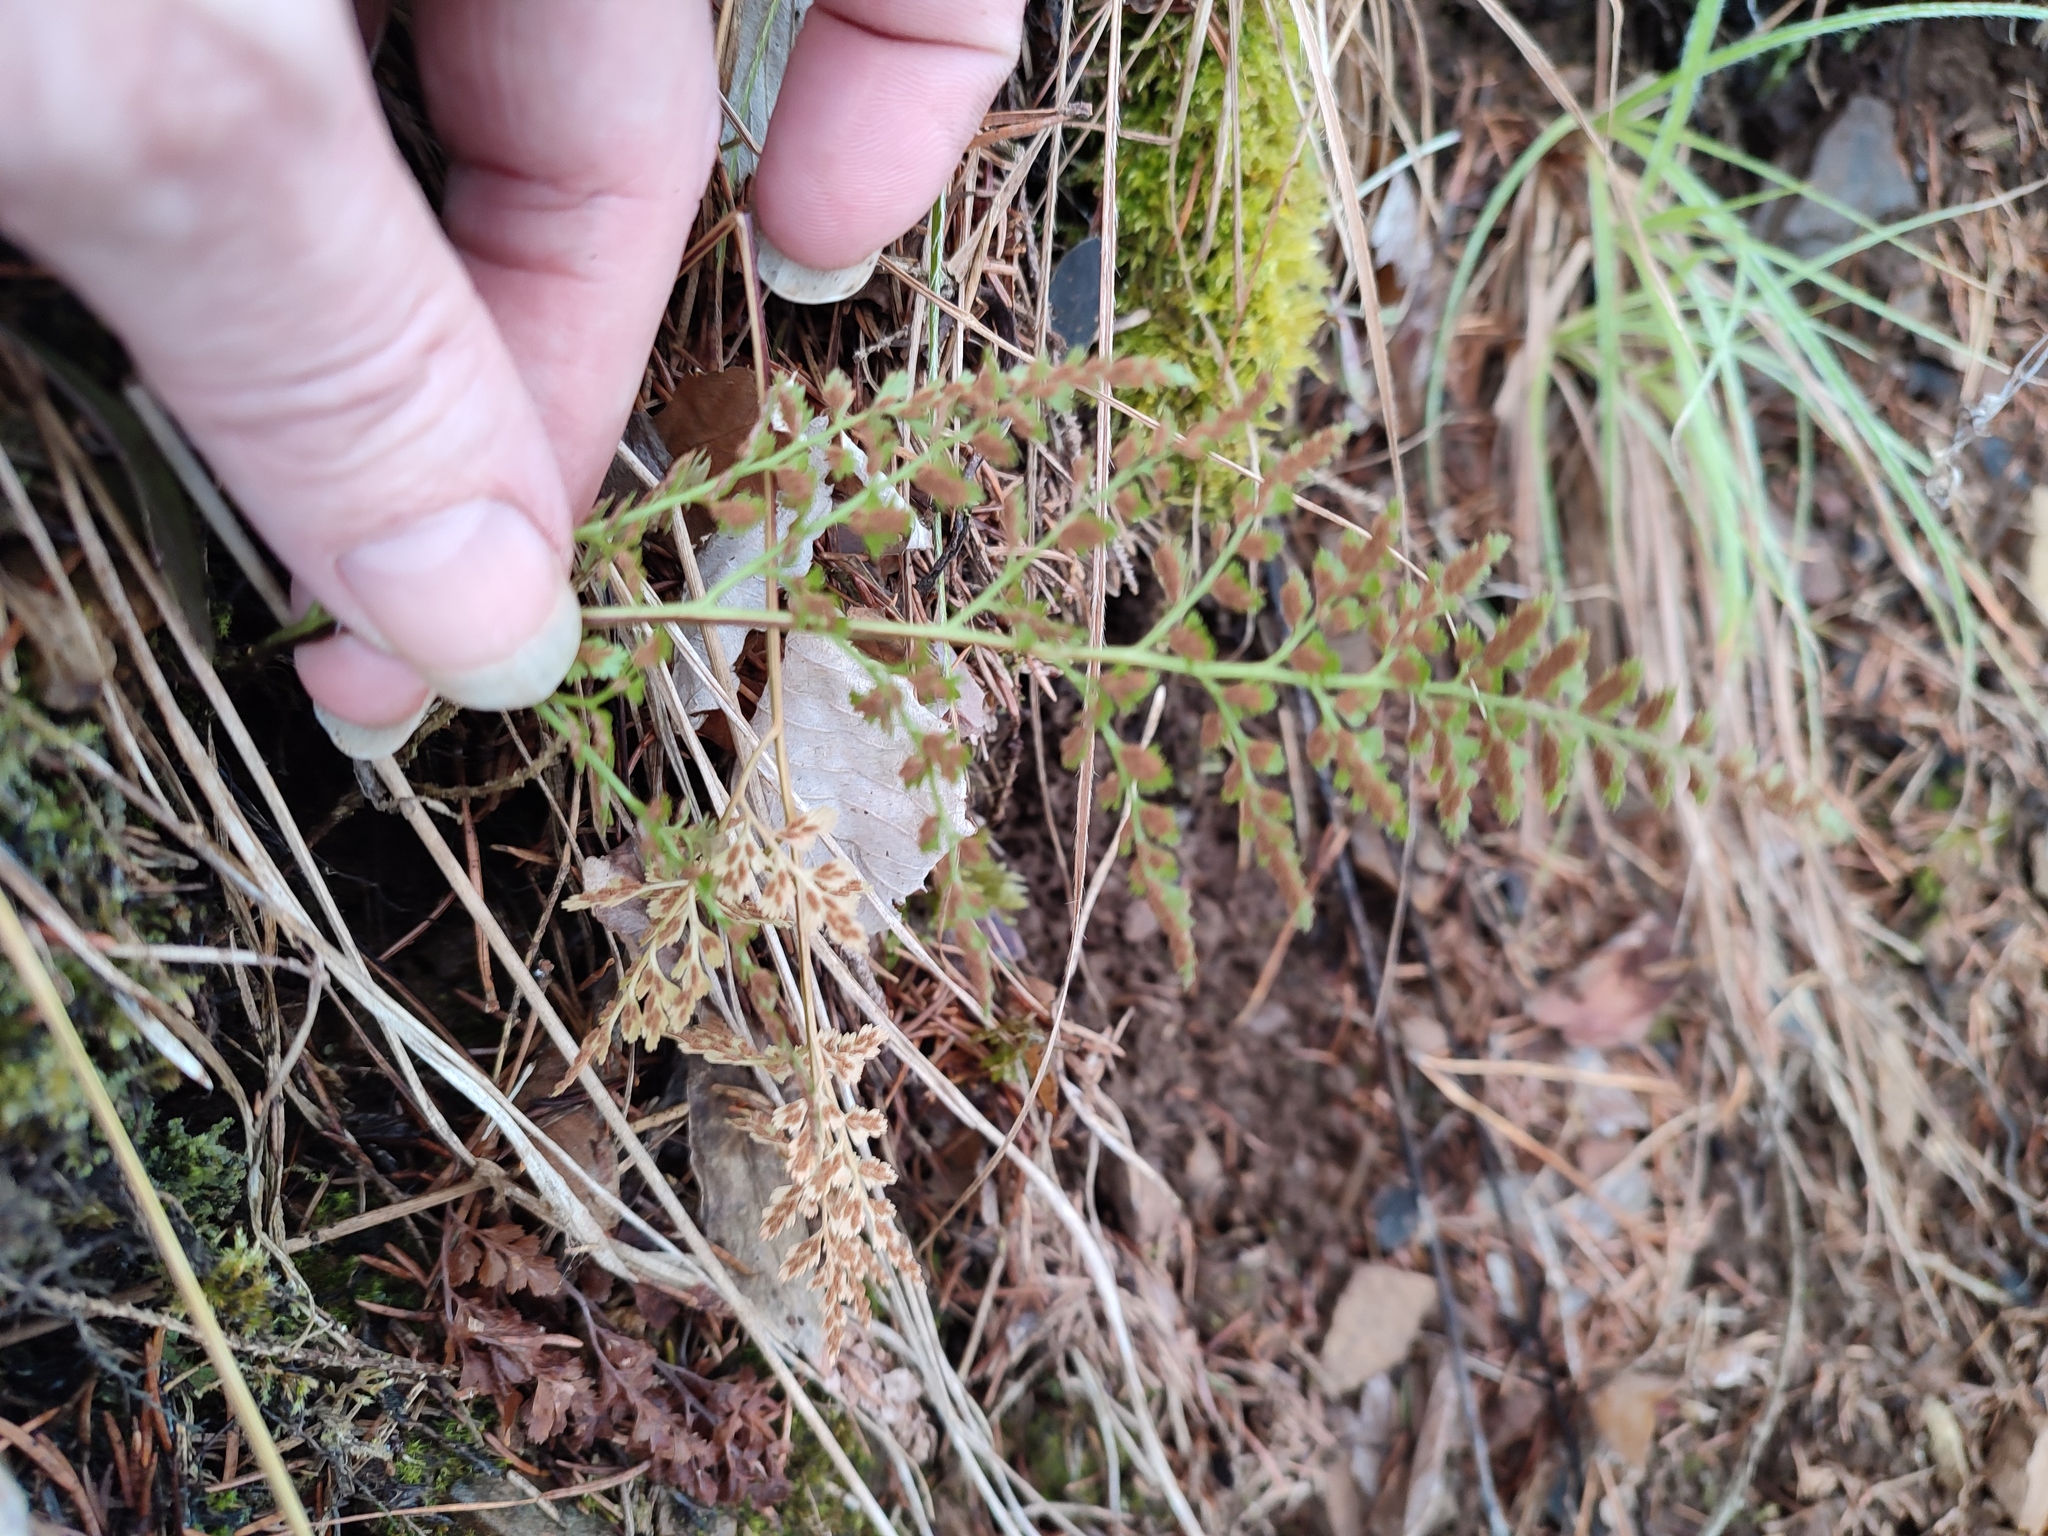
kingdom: Plantae
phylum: Tracheophyta
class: Polypodiopsida
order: Polypodiales
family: Aspleniaceae
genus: Asplenium
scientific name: Asplenium cuneifolium
